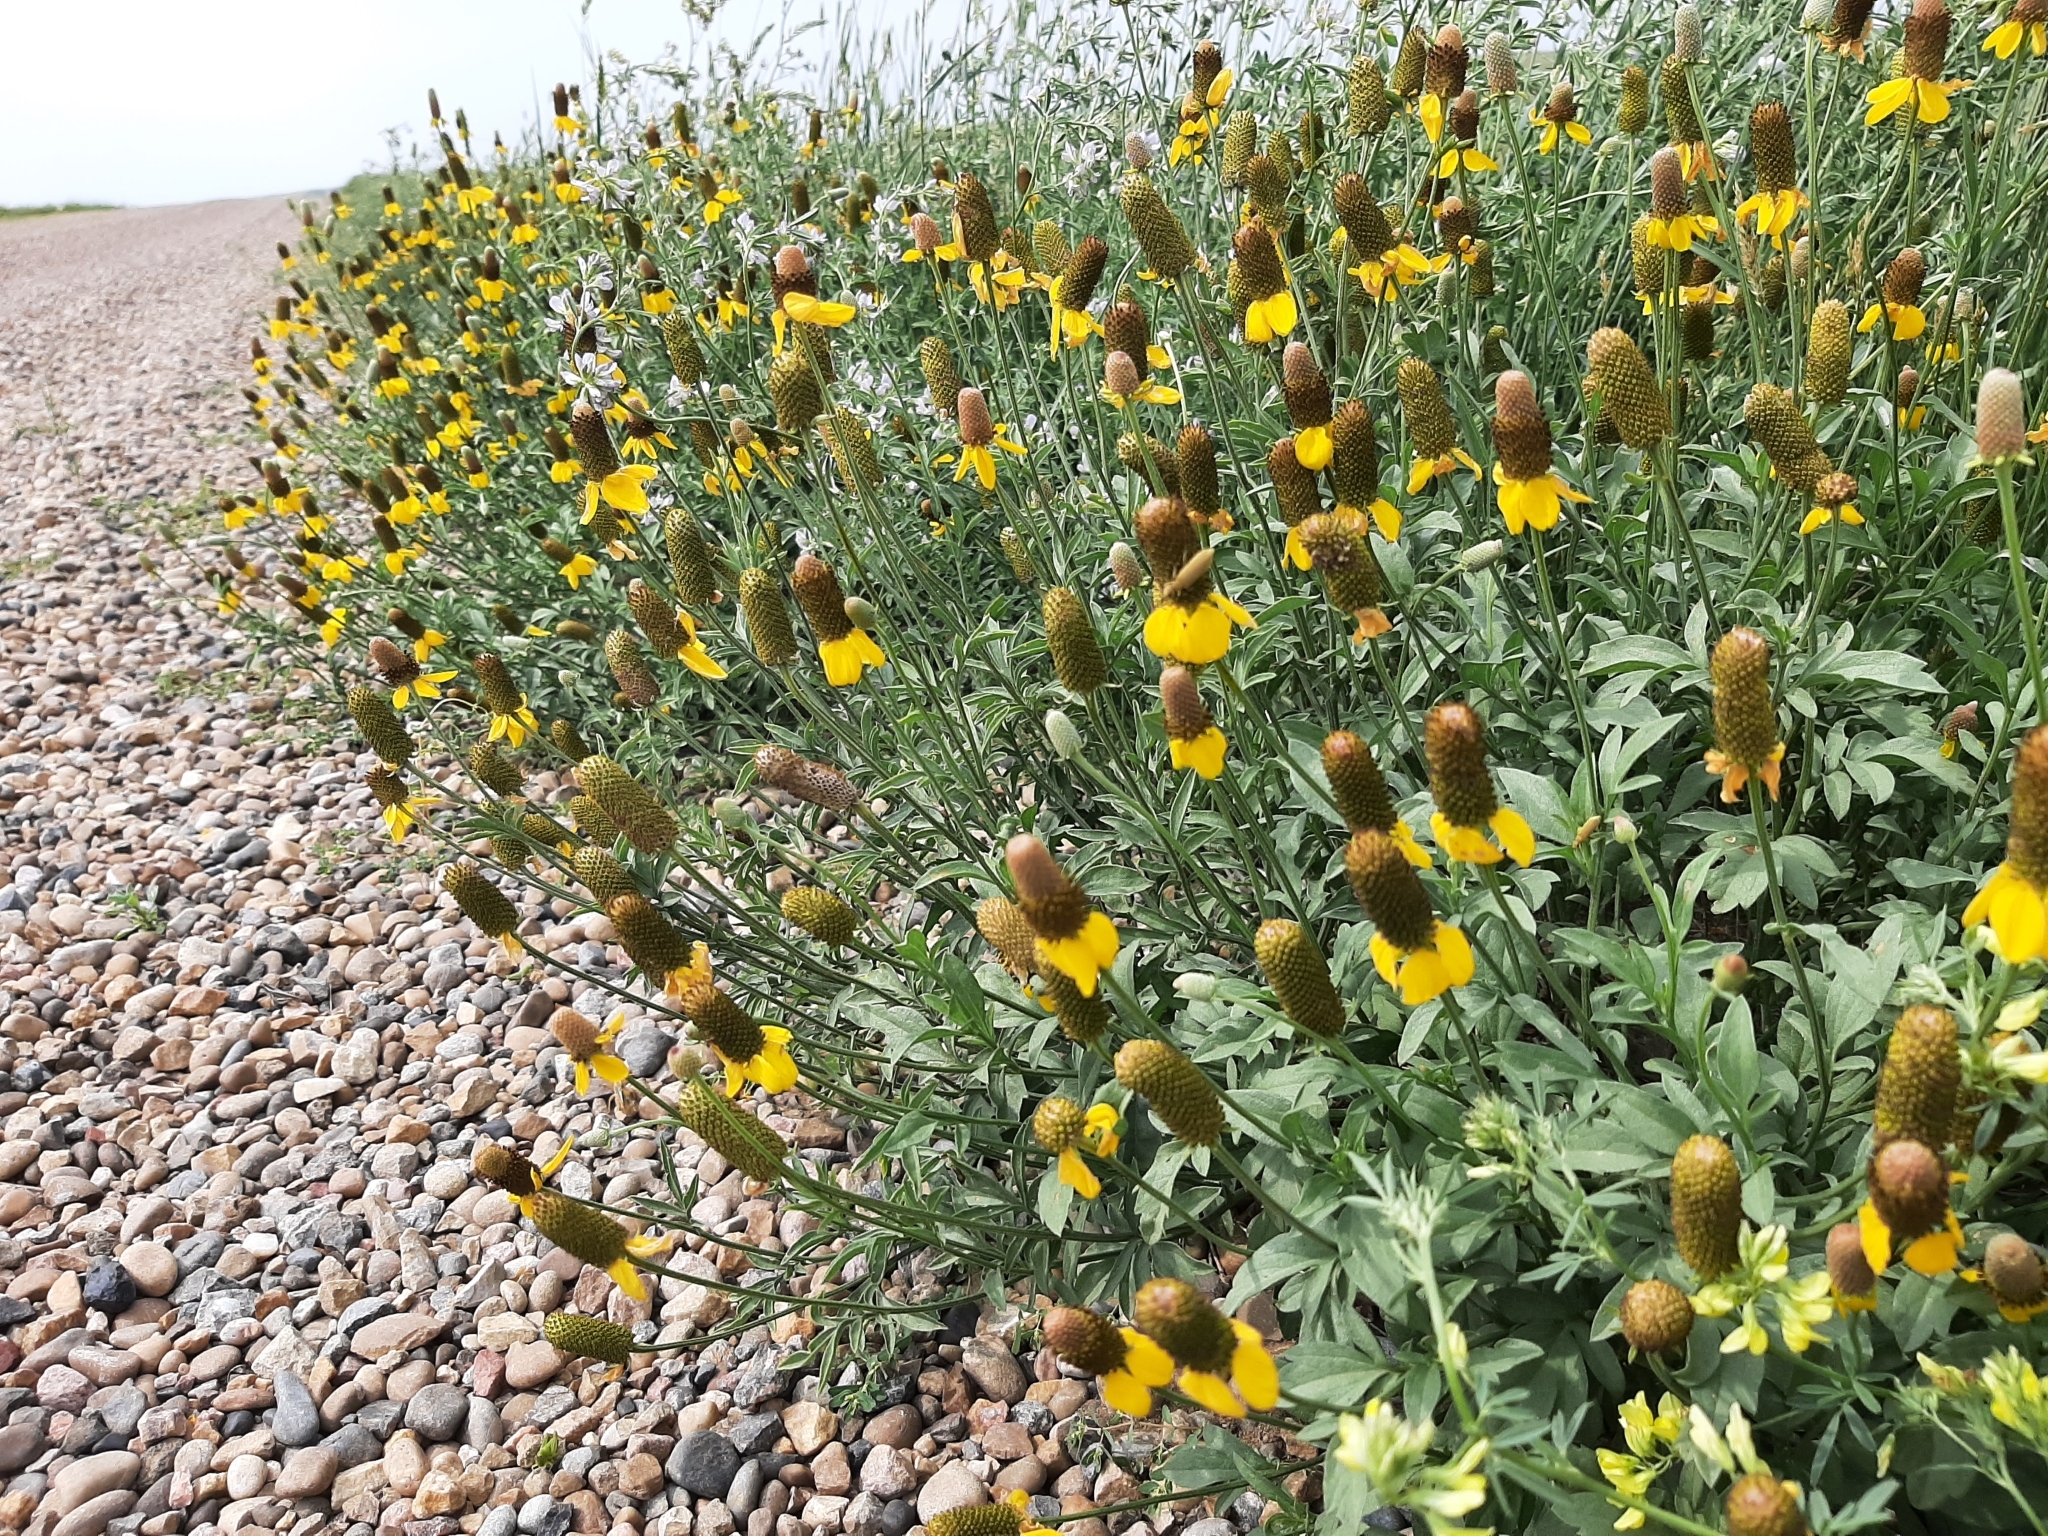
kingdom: Plantae
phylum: Tracheophyta
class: Magnoliopsida
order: Asterales
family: Asteraceae
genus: Ratibida
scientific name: Ratibida columnifera
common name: Prairie coneflower
